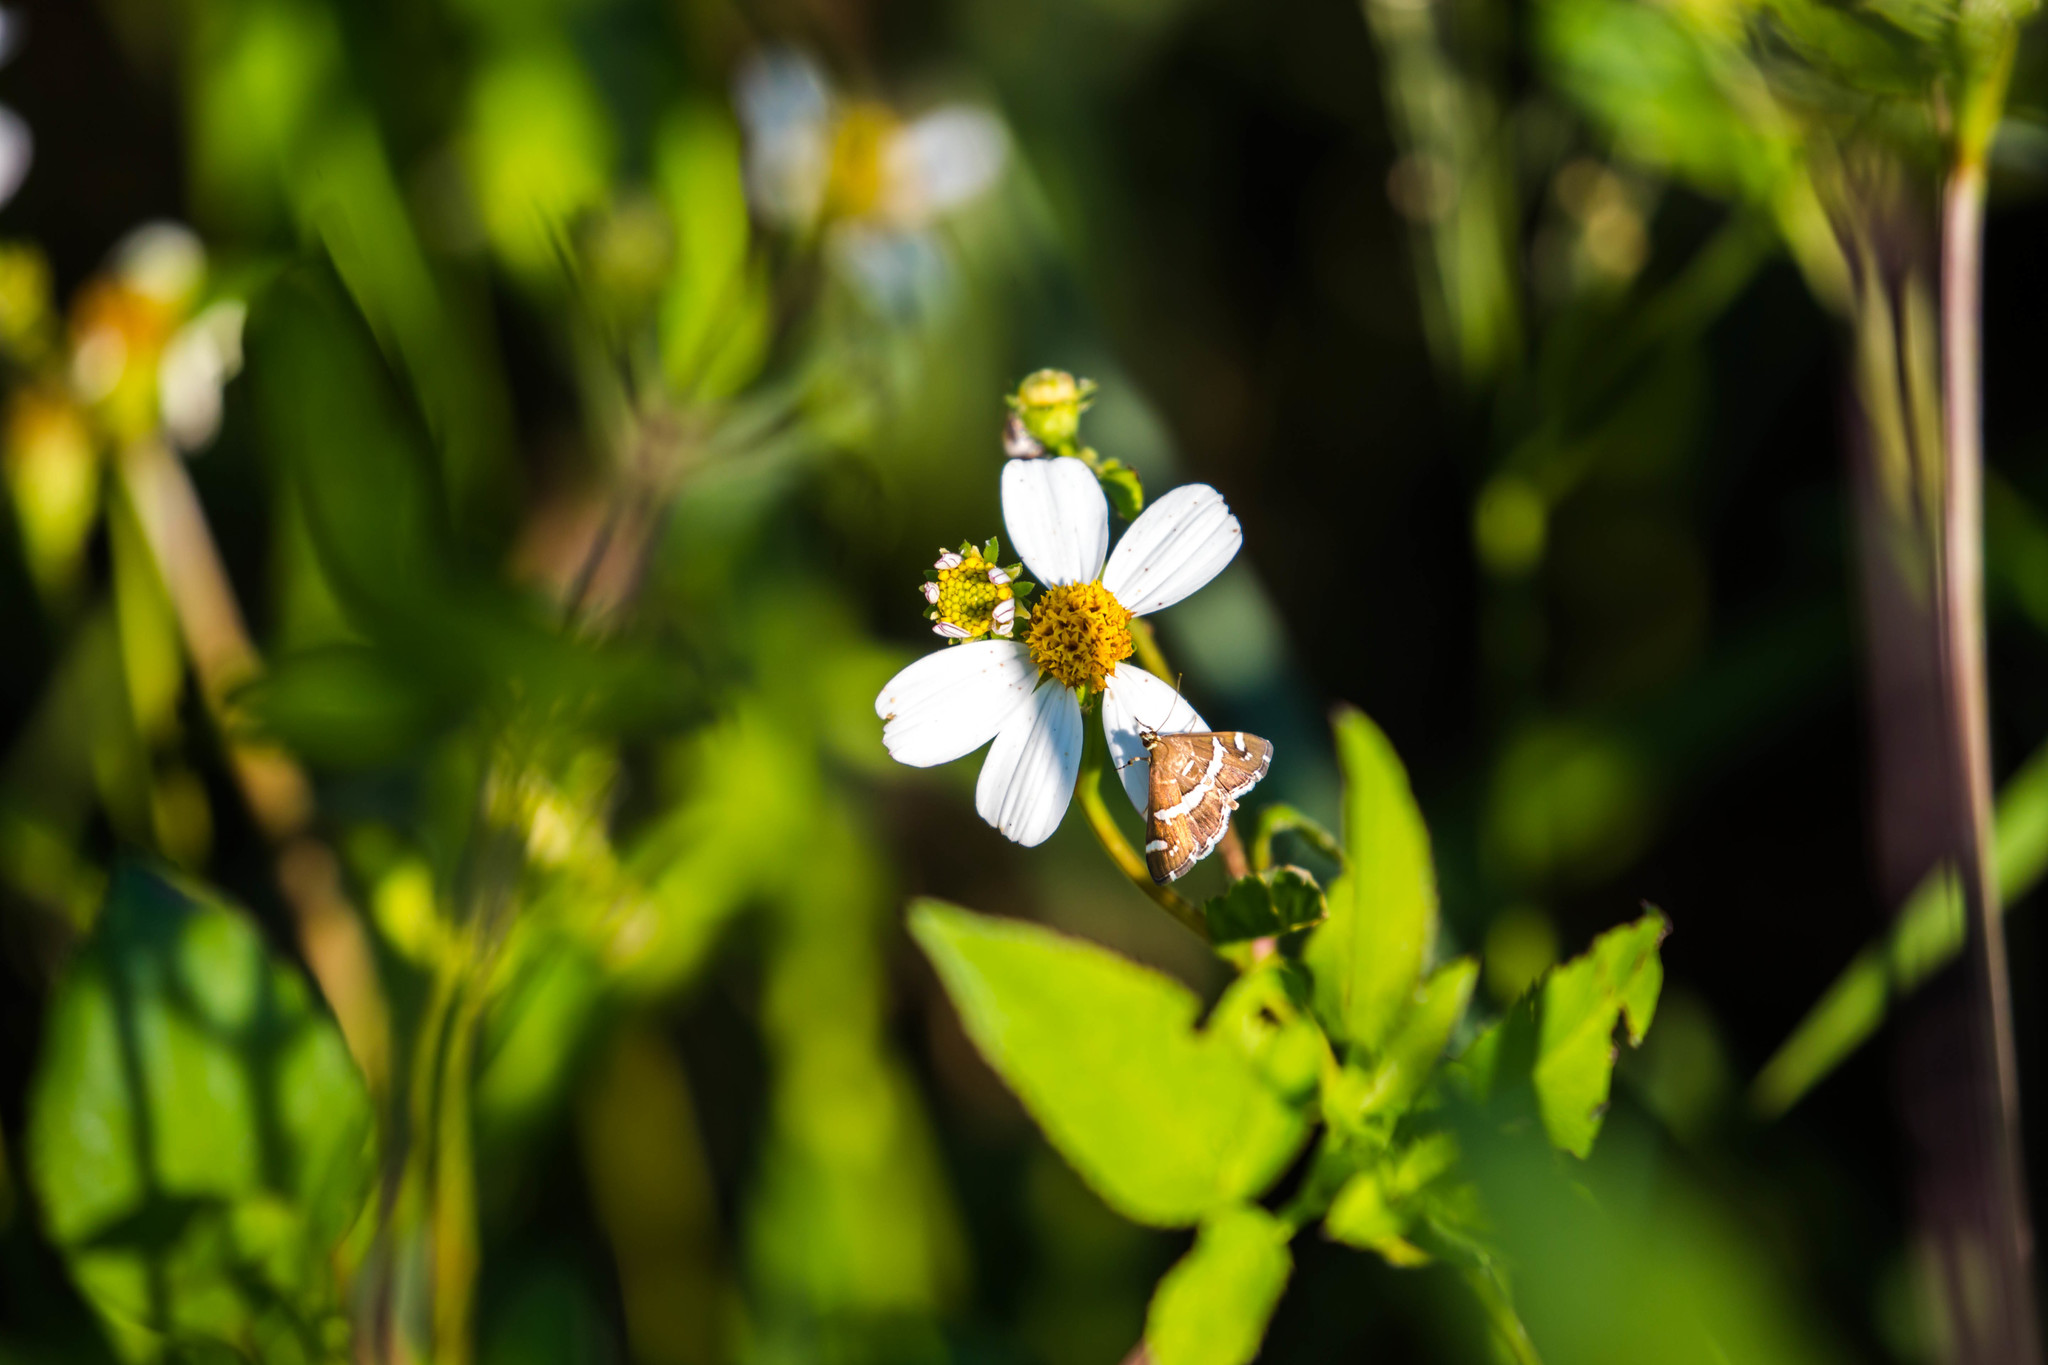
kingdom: Animalia
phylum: Arthropoda
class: Insecta
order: Lepidoptera
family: Crambidae
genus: Spoladea
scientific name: Spoladea recurvalis
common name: Beet webworm moth
